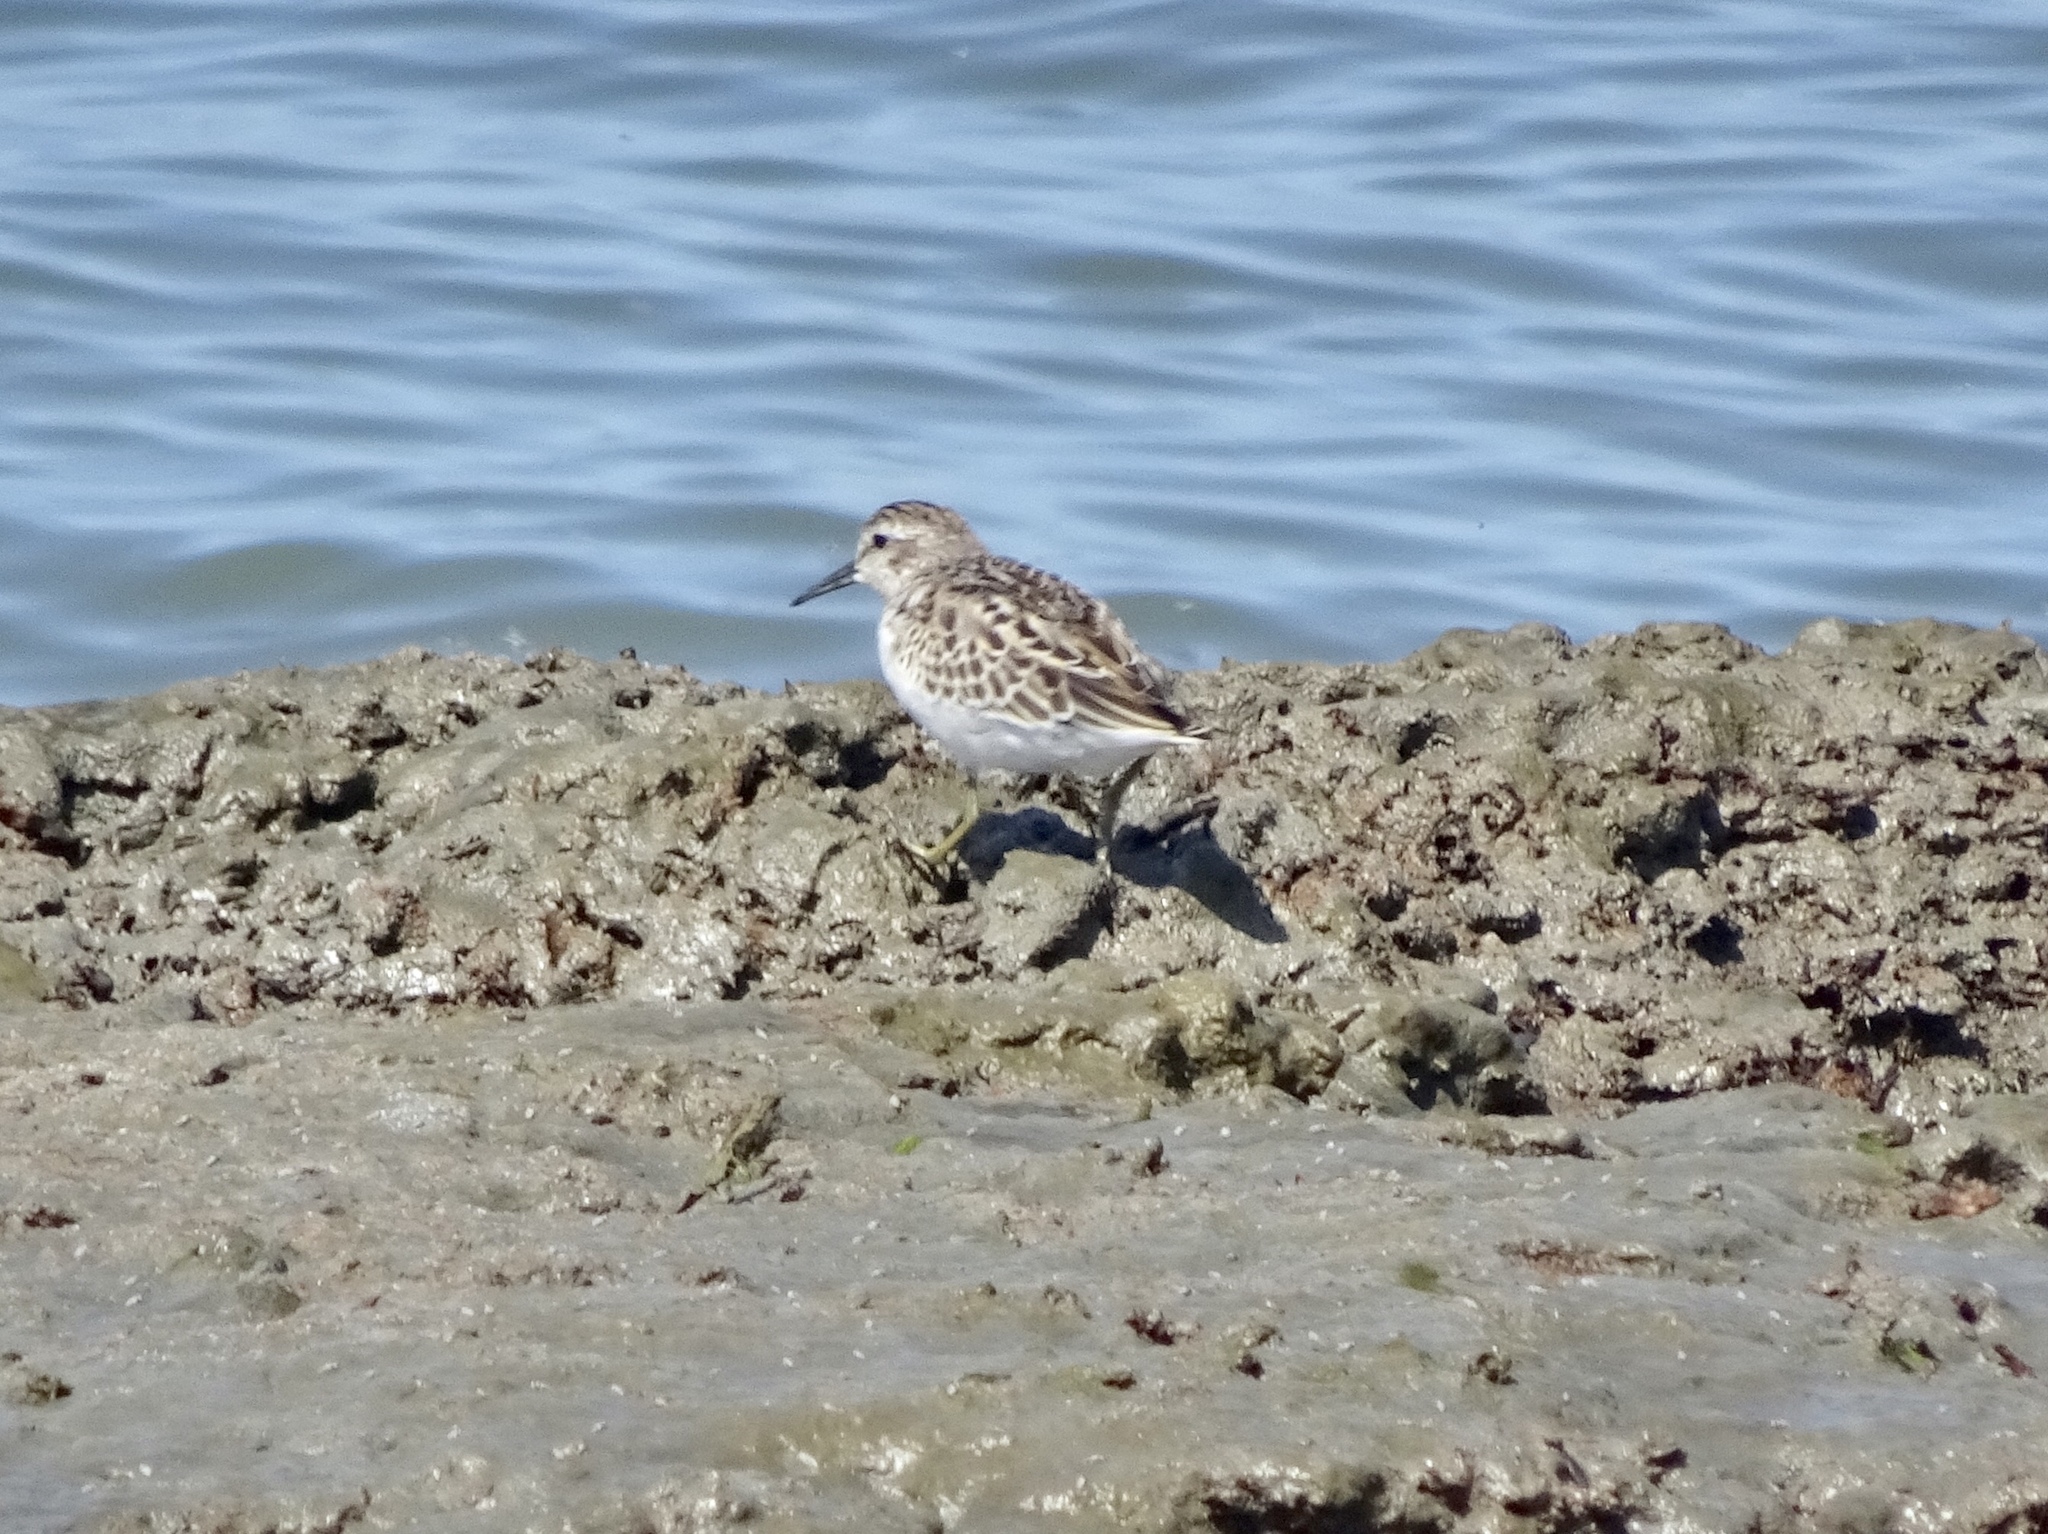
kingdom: Animalia
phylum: Chordata
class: Aves
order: Charadriiformes
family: Scolopacidae
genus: Calidris
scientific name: Calidris minutilla
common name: Least sandpiper
